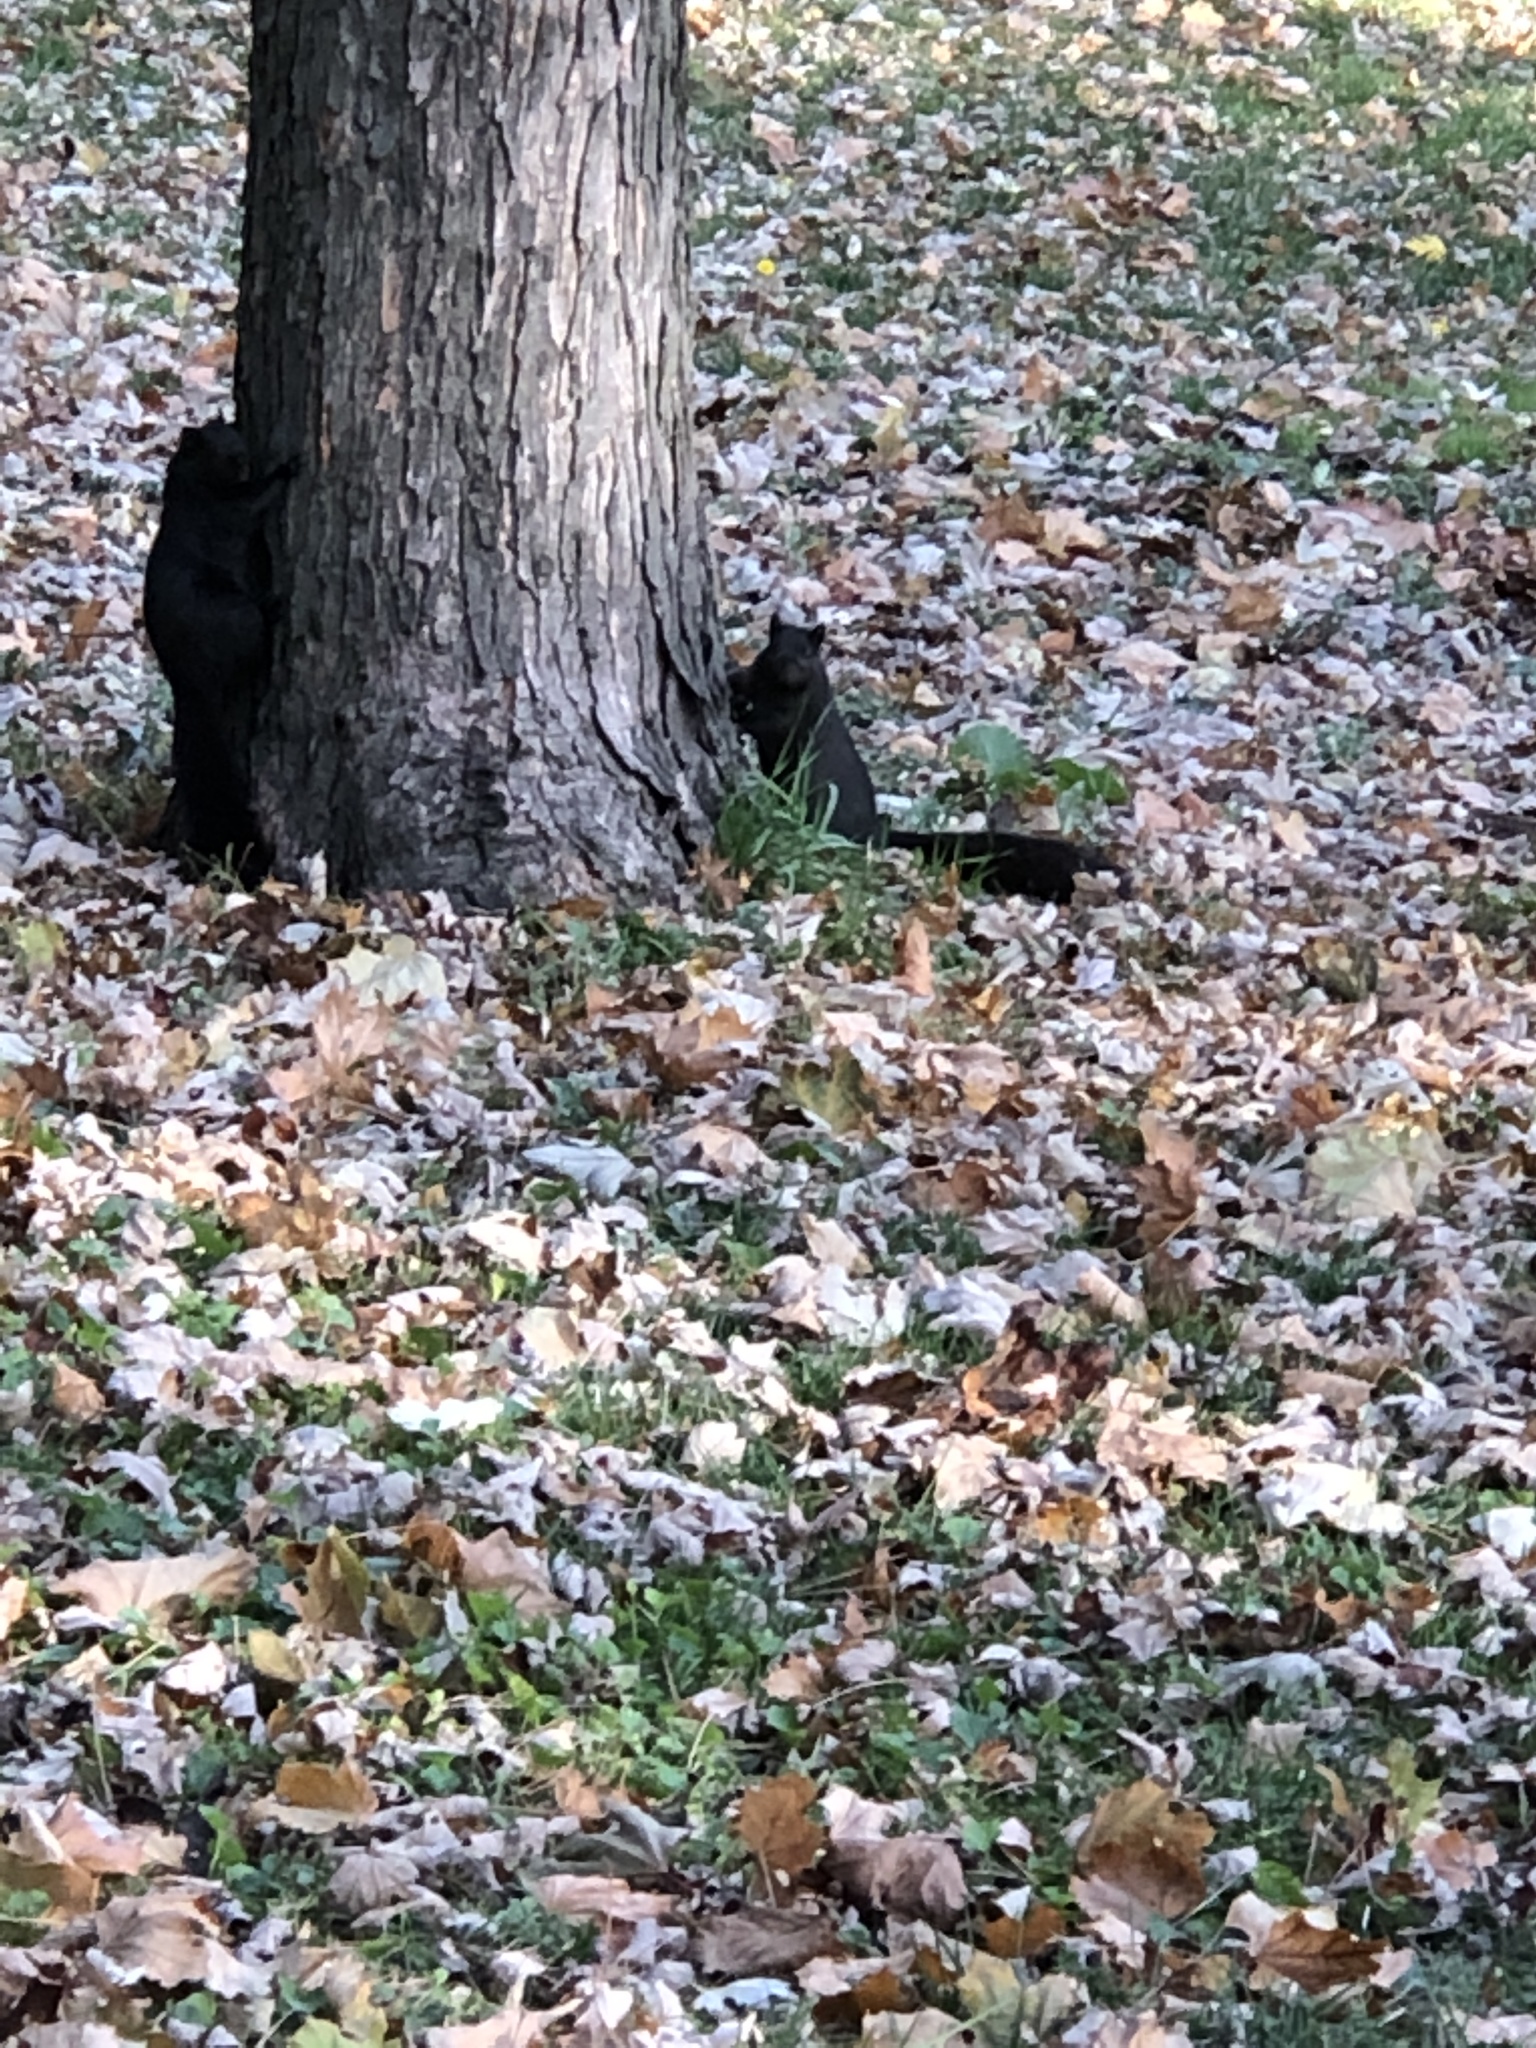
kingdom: Animalia
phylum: Chordata
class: Mammalia
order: Rodentia
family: Sciuridae
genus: Sciurus
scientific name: Sciurus carolinensis
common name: Eastern gray squirrel
